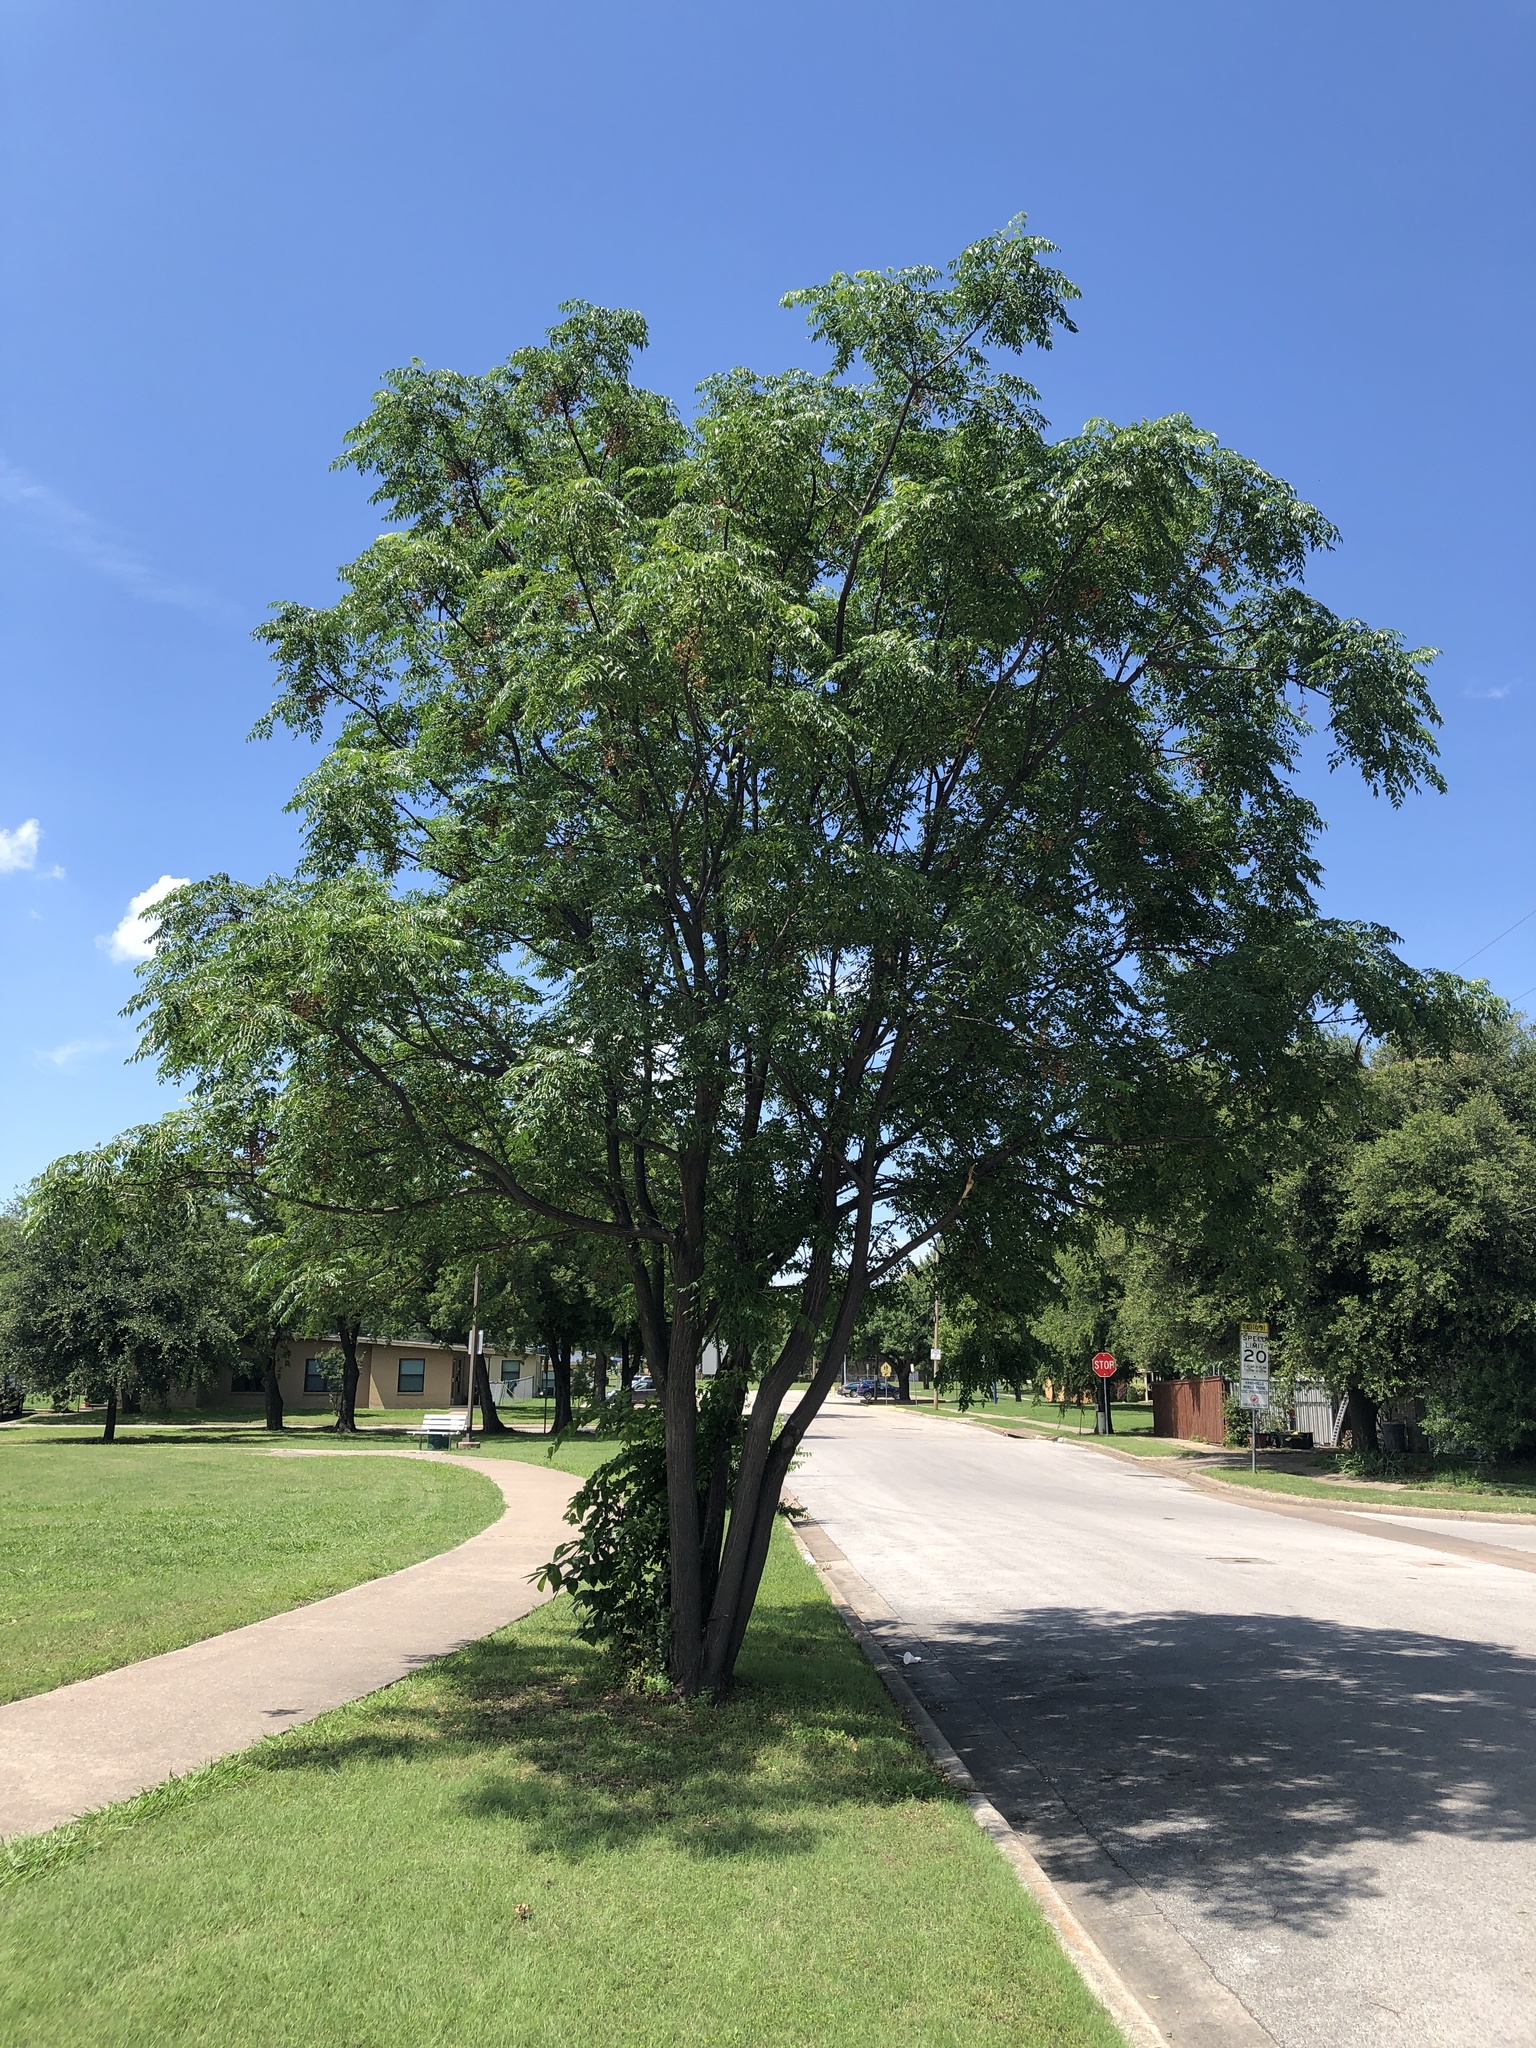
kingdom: Plantae
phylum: Tracheophyta
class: Magnoliopsida
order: Sapindales
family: Meliaceae
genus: Melia
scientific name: Melia azedarach
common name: Chinaberrytree
